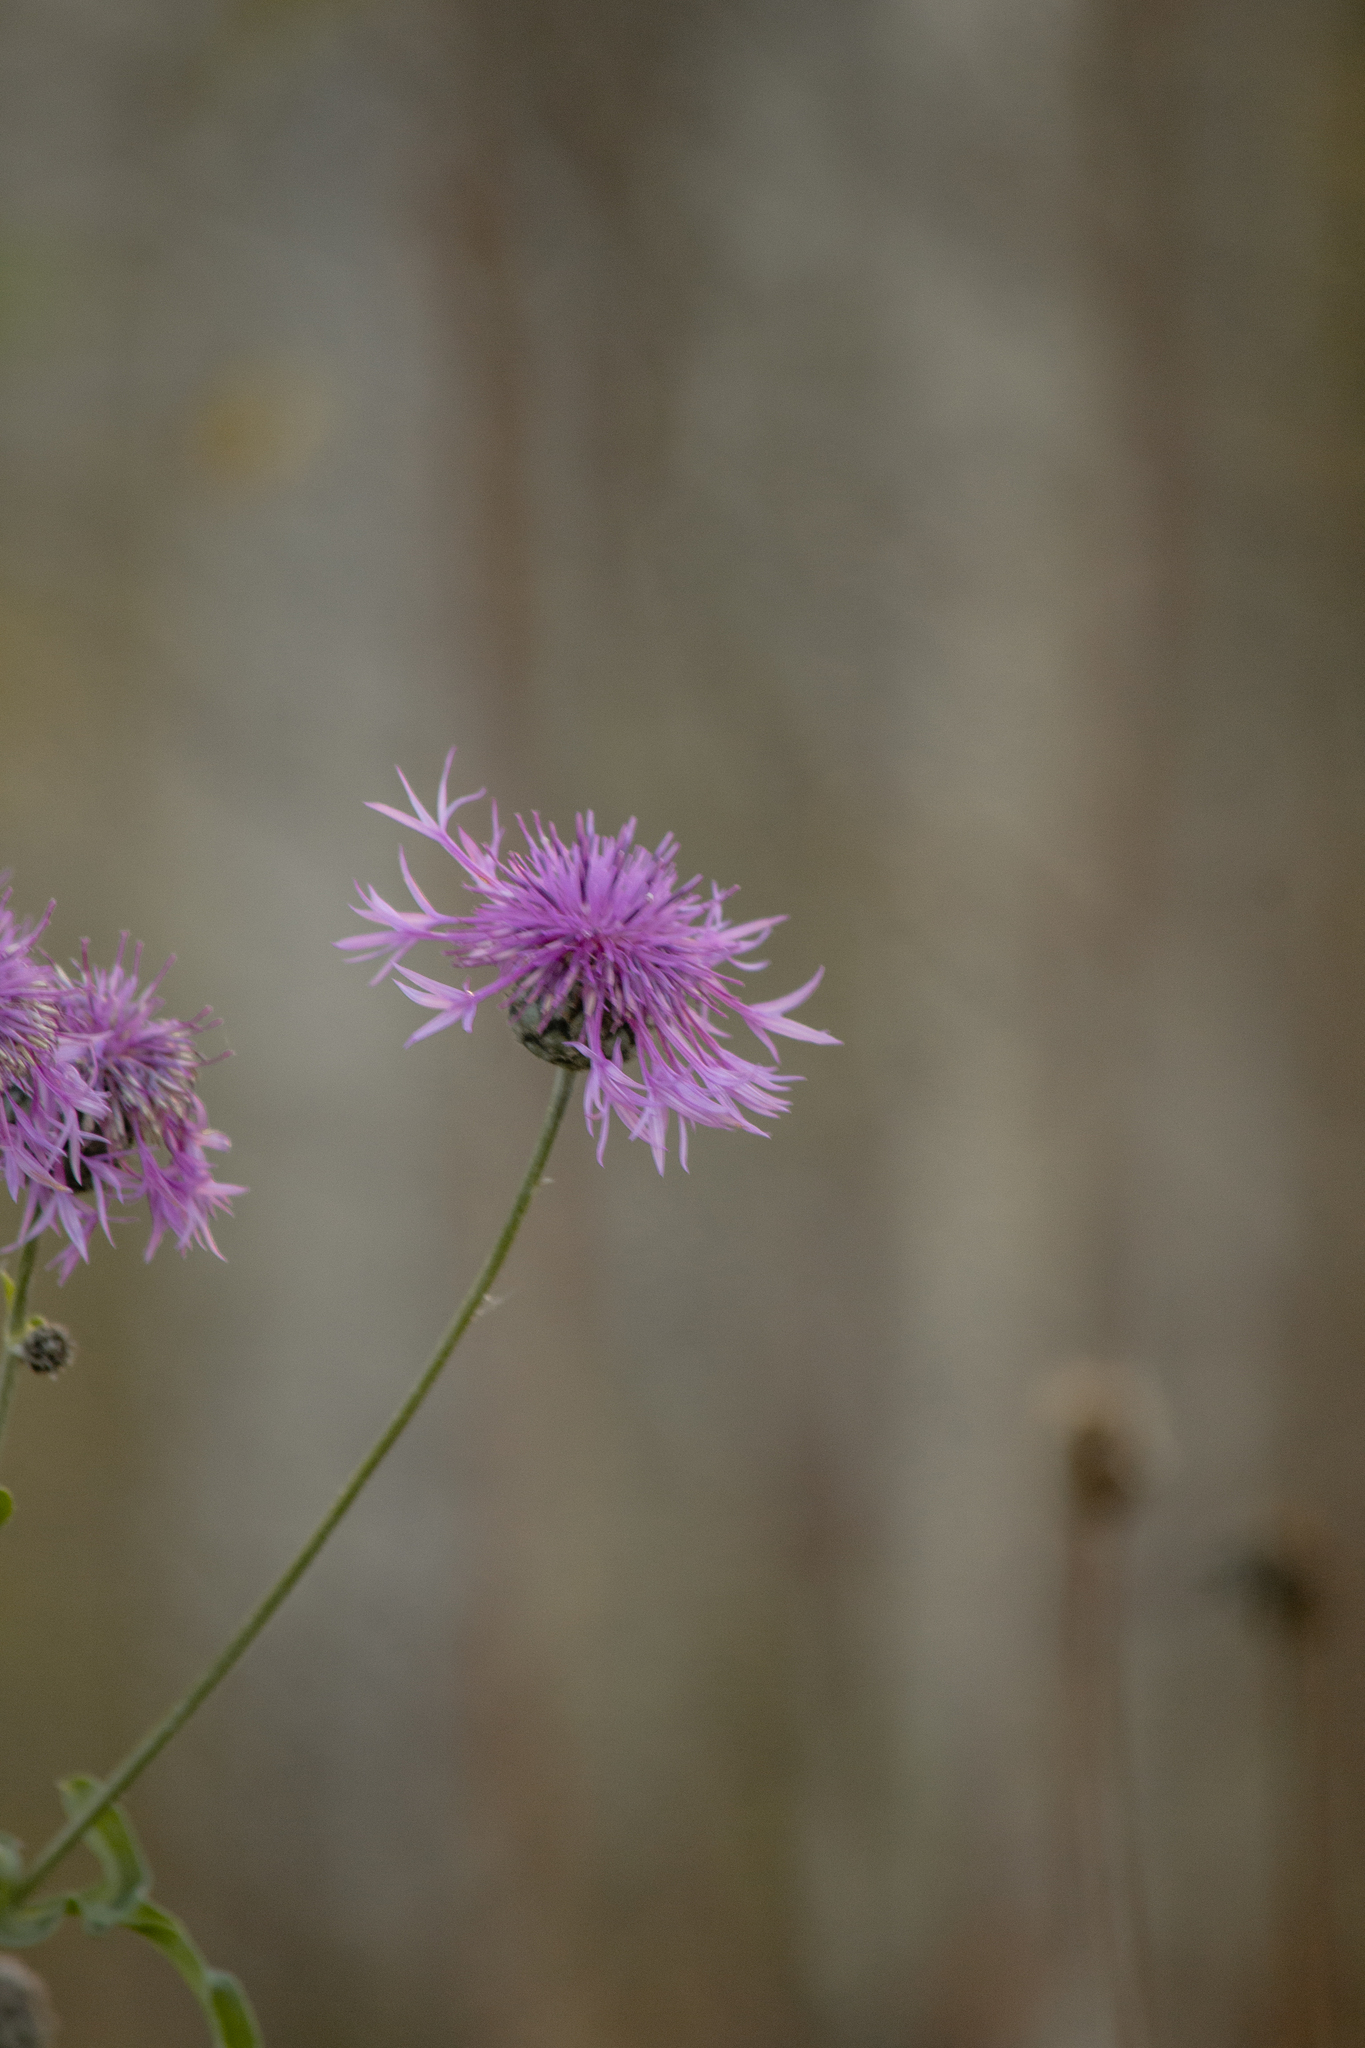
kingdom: Plantae
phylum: Tracheophyta
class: Magnoliopsida
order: Asterales
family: Asteraceae
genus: Centaurea
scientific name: Centaurea scabiosa
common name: Greater knapweed
